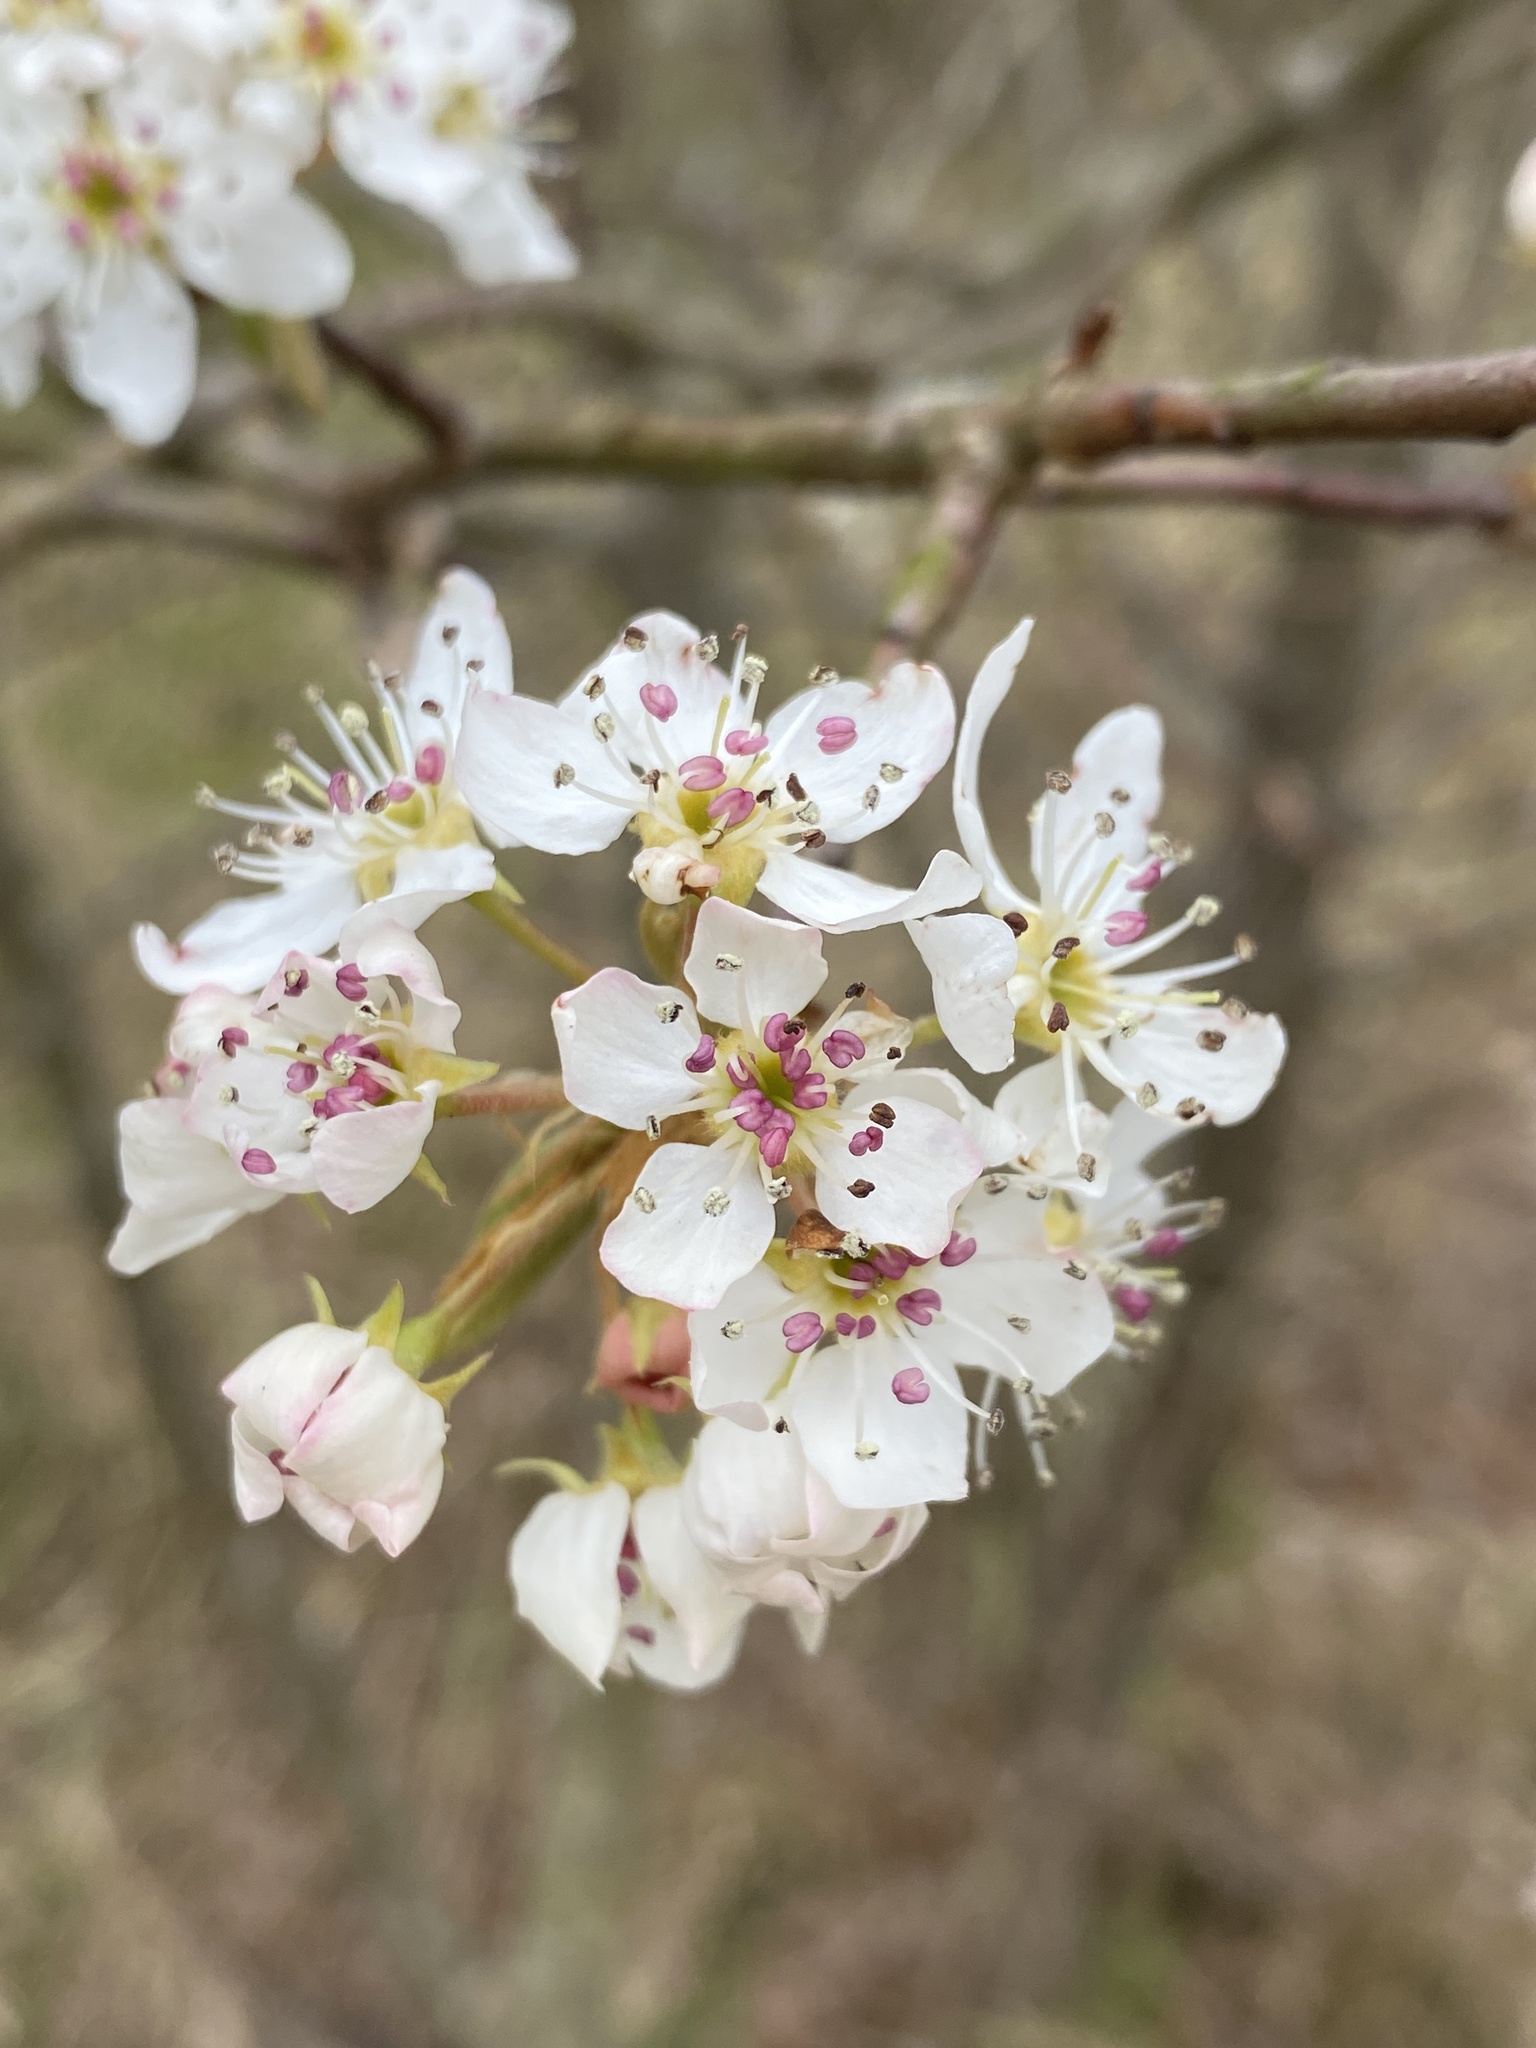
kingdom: Plantae
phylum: Tracheophyta
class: Magnoliopsida
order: Rosales
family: Rosaceae
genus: Pyrus
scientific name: Pyrus calleryana
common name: Callery pear
